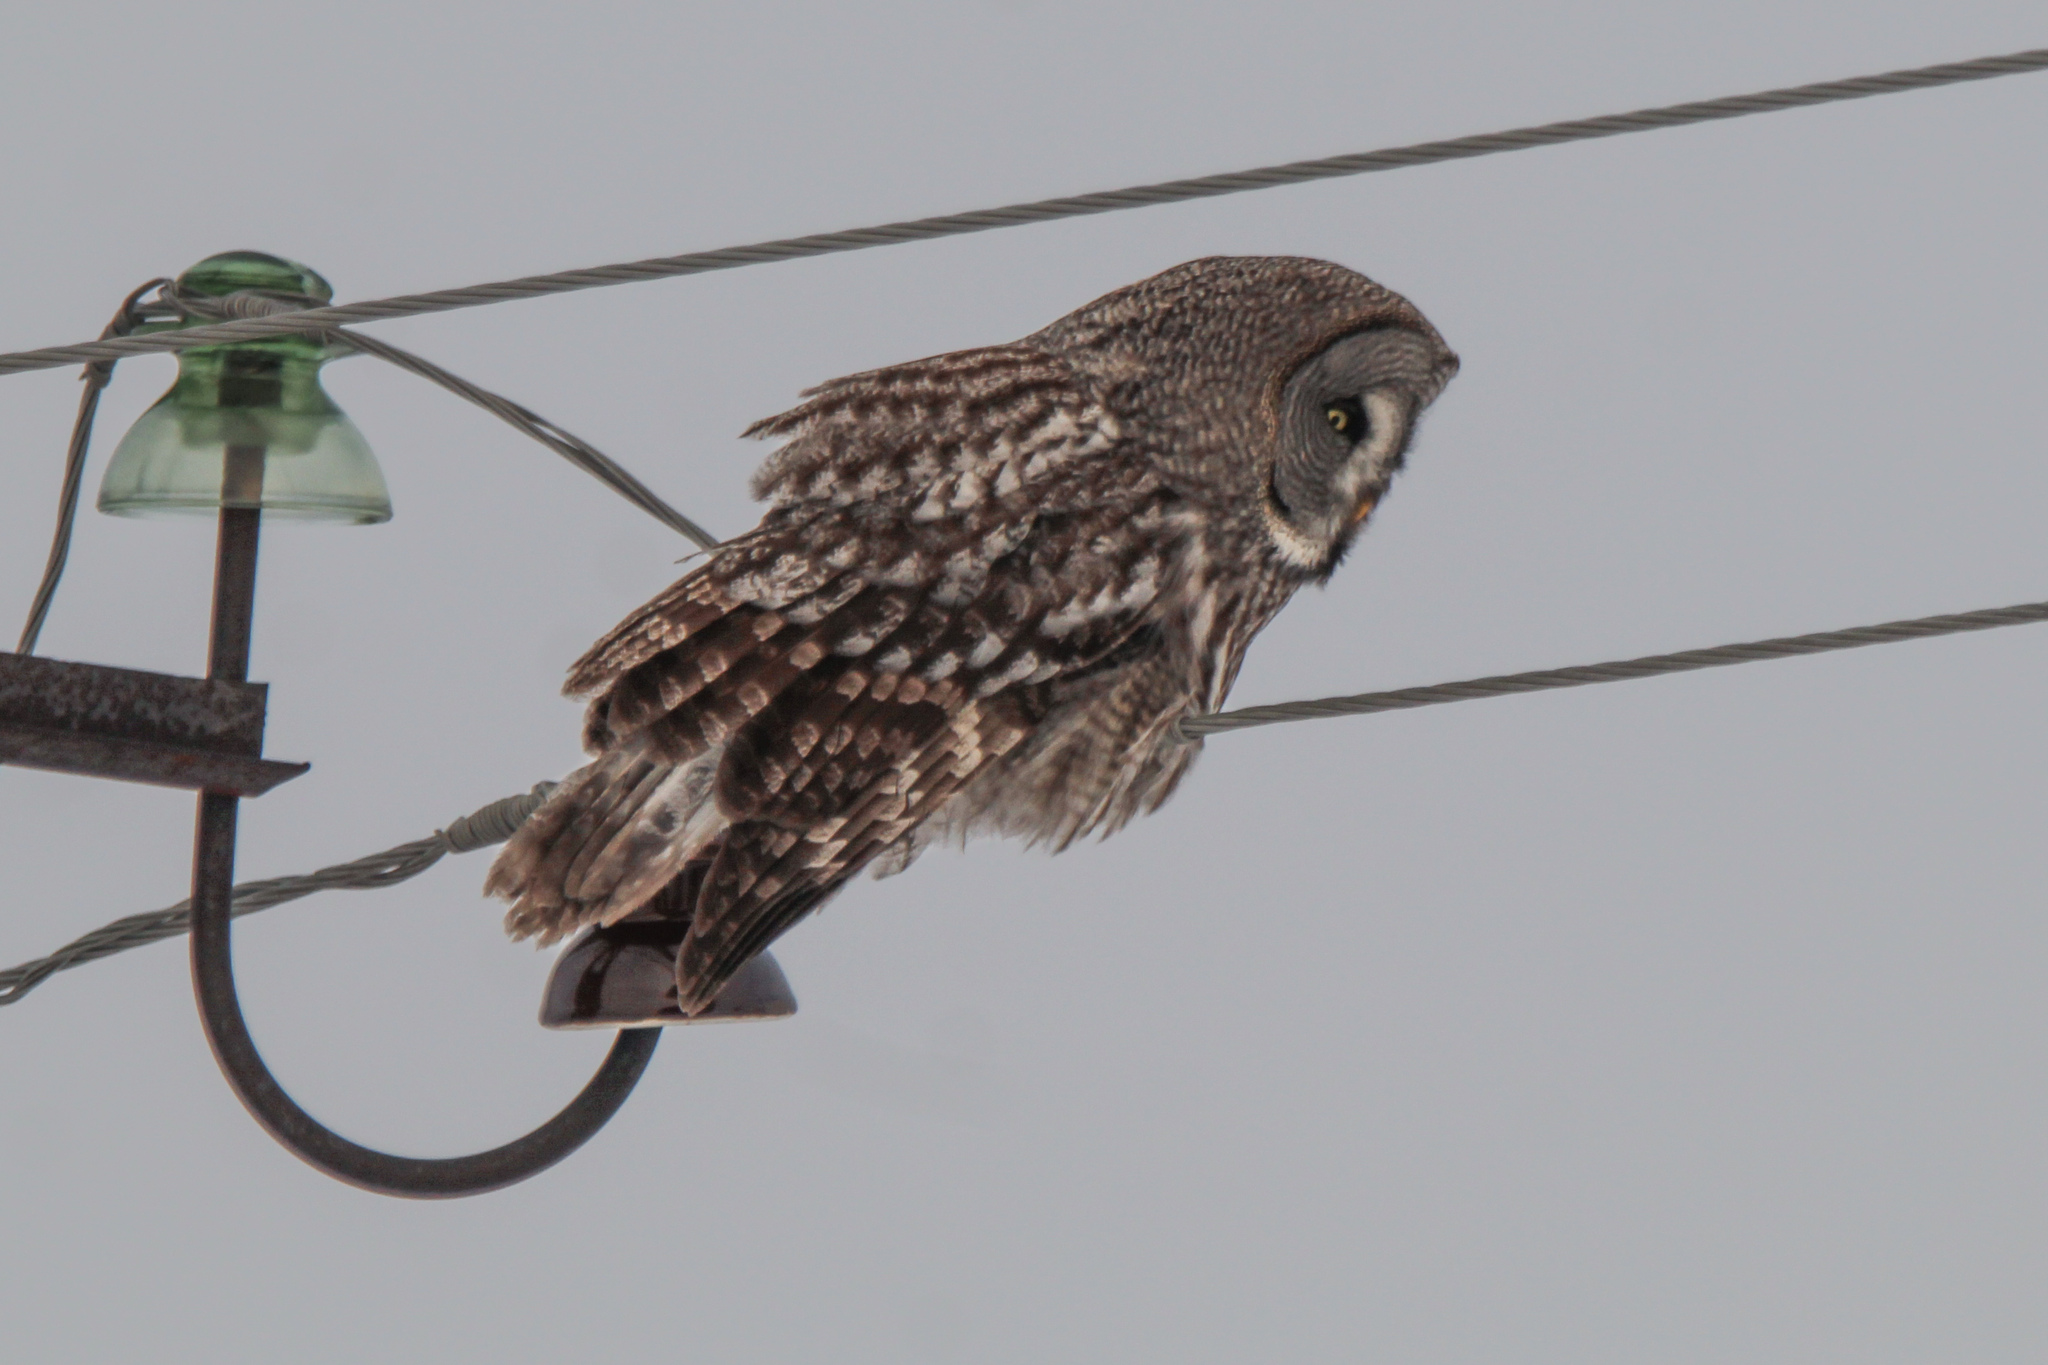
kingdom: Animalia
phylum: Chordata
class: Aves
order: Strigiformes
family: Strigidae
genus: Strix
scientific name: Strix nebulosa
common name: Great grey owl
